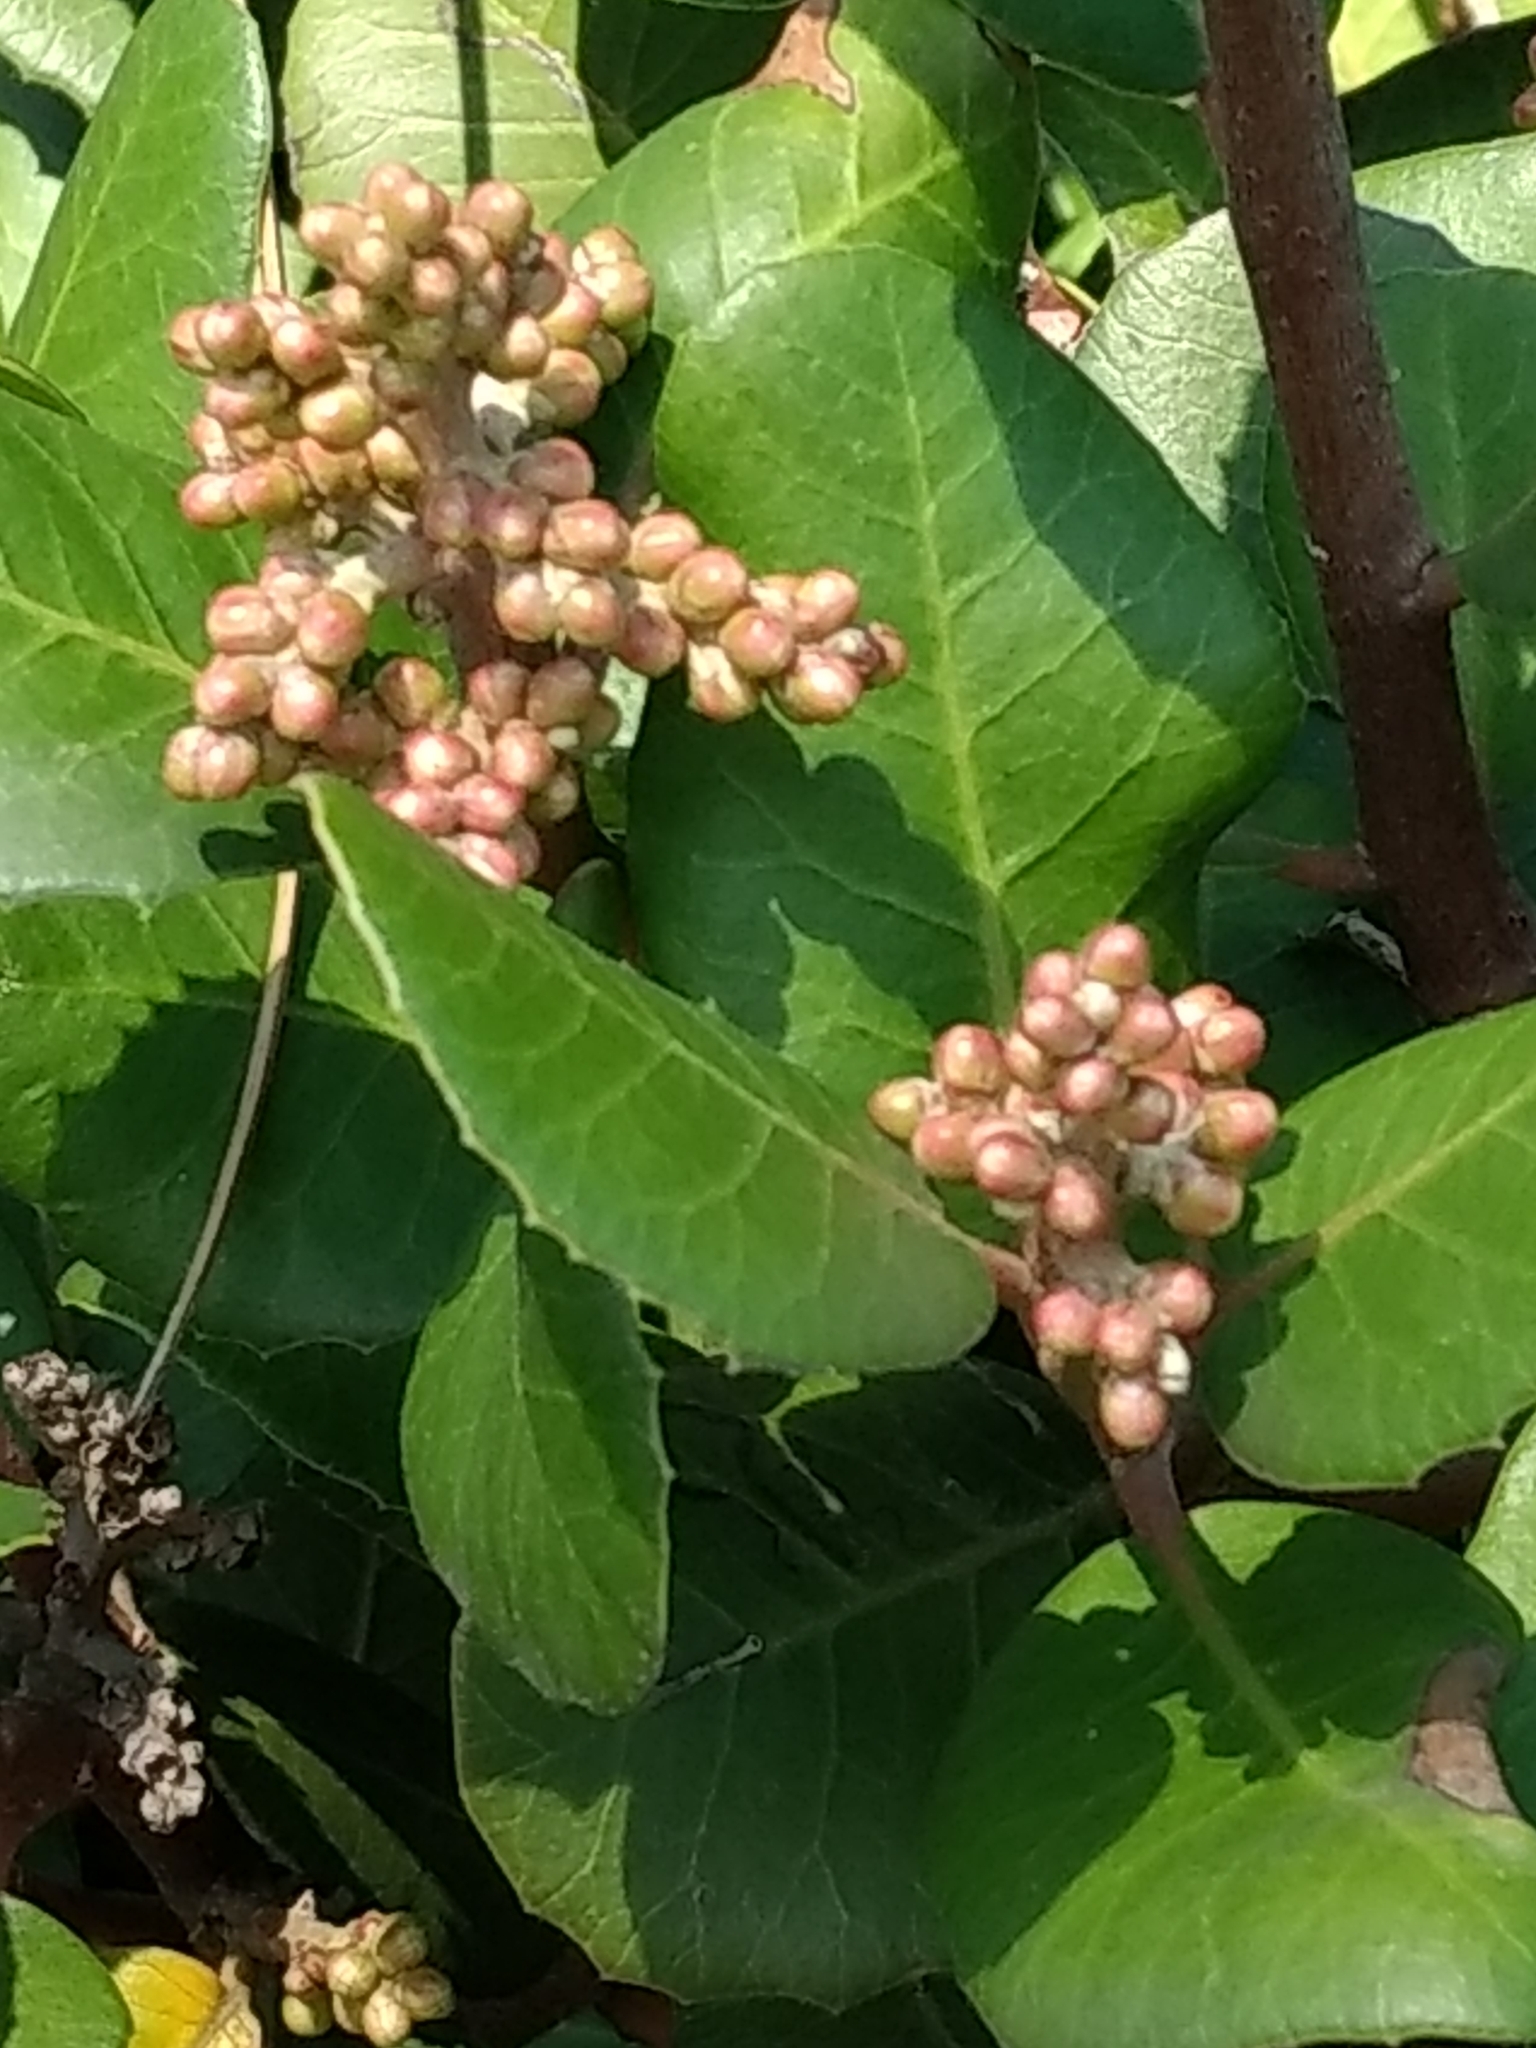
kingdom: Plantae
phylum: Tracheophyta
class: Magnoliopsida
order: Sapindales
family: Anacardiaceae
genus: Rhus
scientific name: Rhus integrifolia
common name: Lemonade sumac
